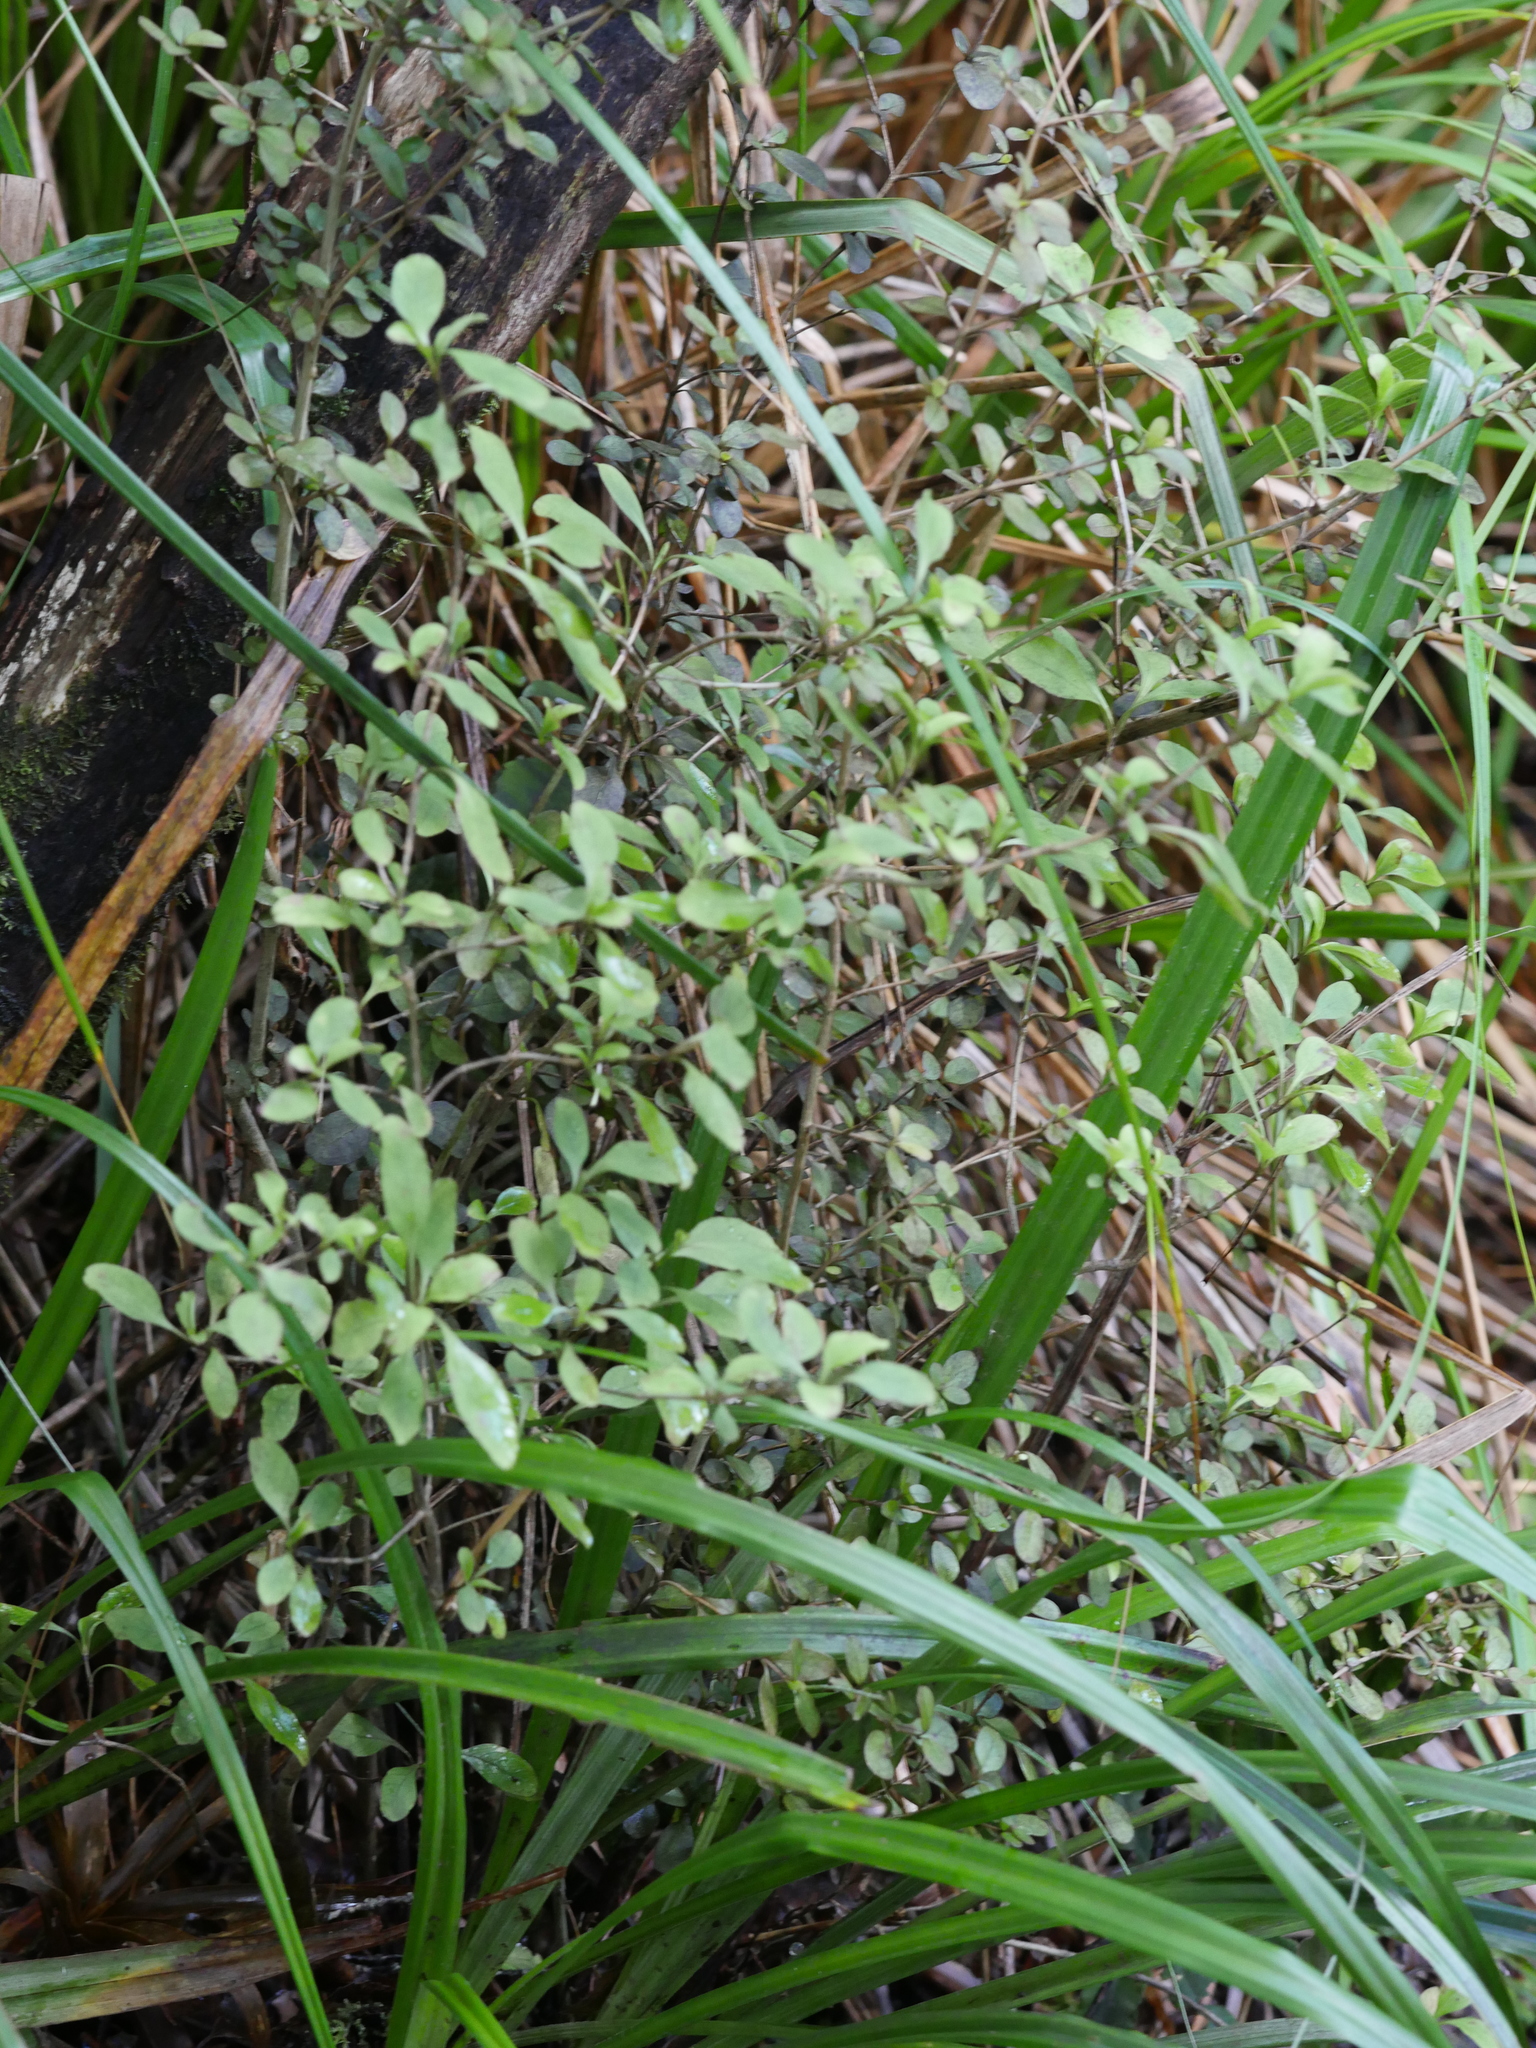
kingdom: Plantae
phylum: Tracheophyta
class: Magnoliopsida
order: Gentianales
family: Rubiaceae
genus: Coprosma
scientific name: Coprosma foetidissima
